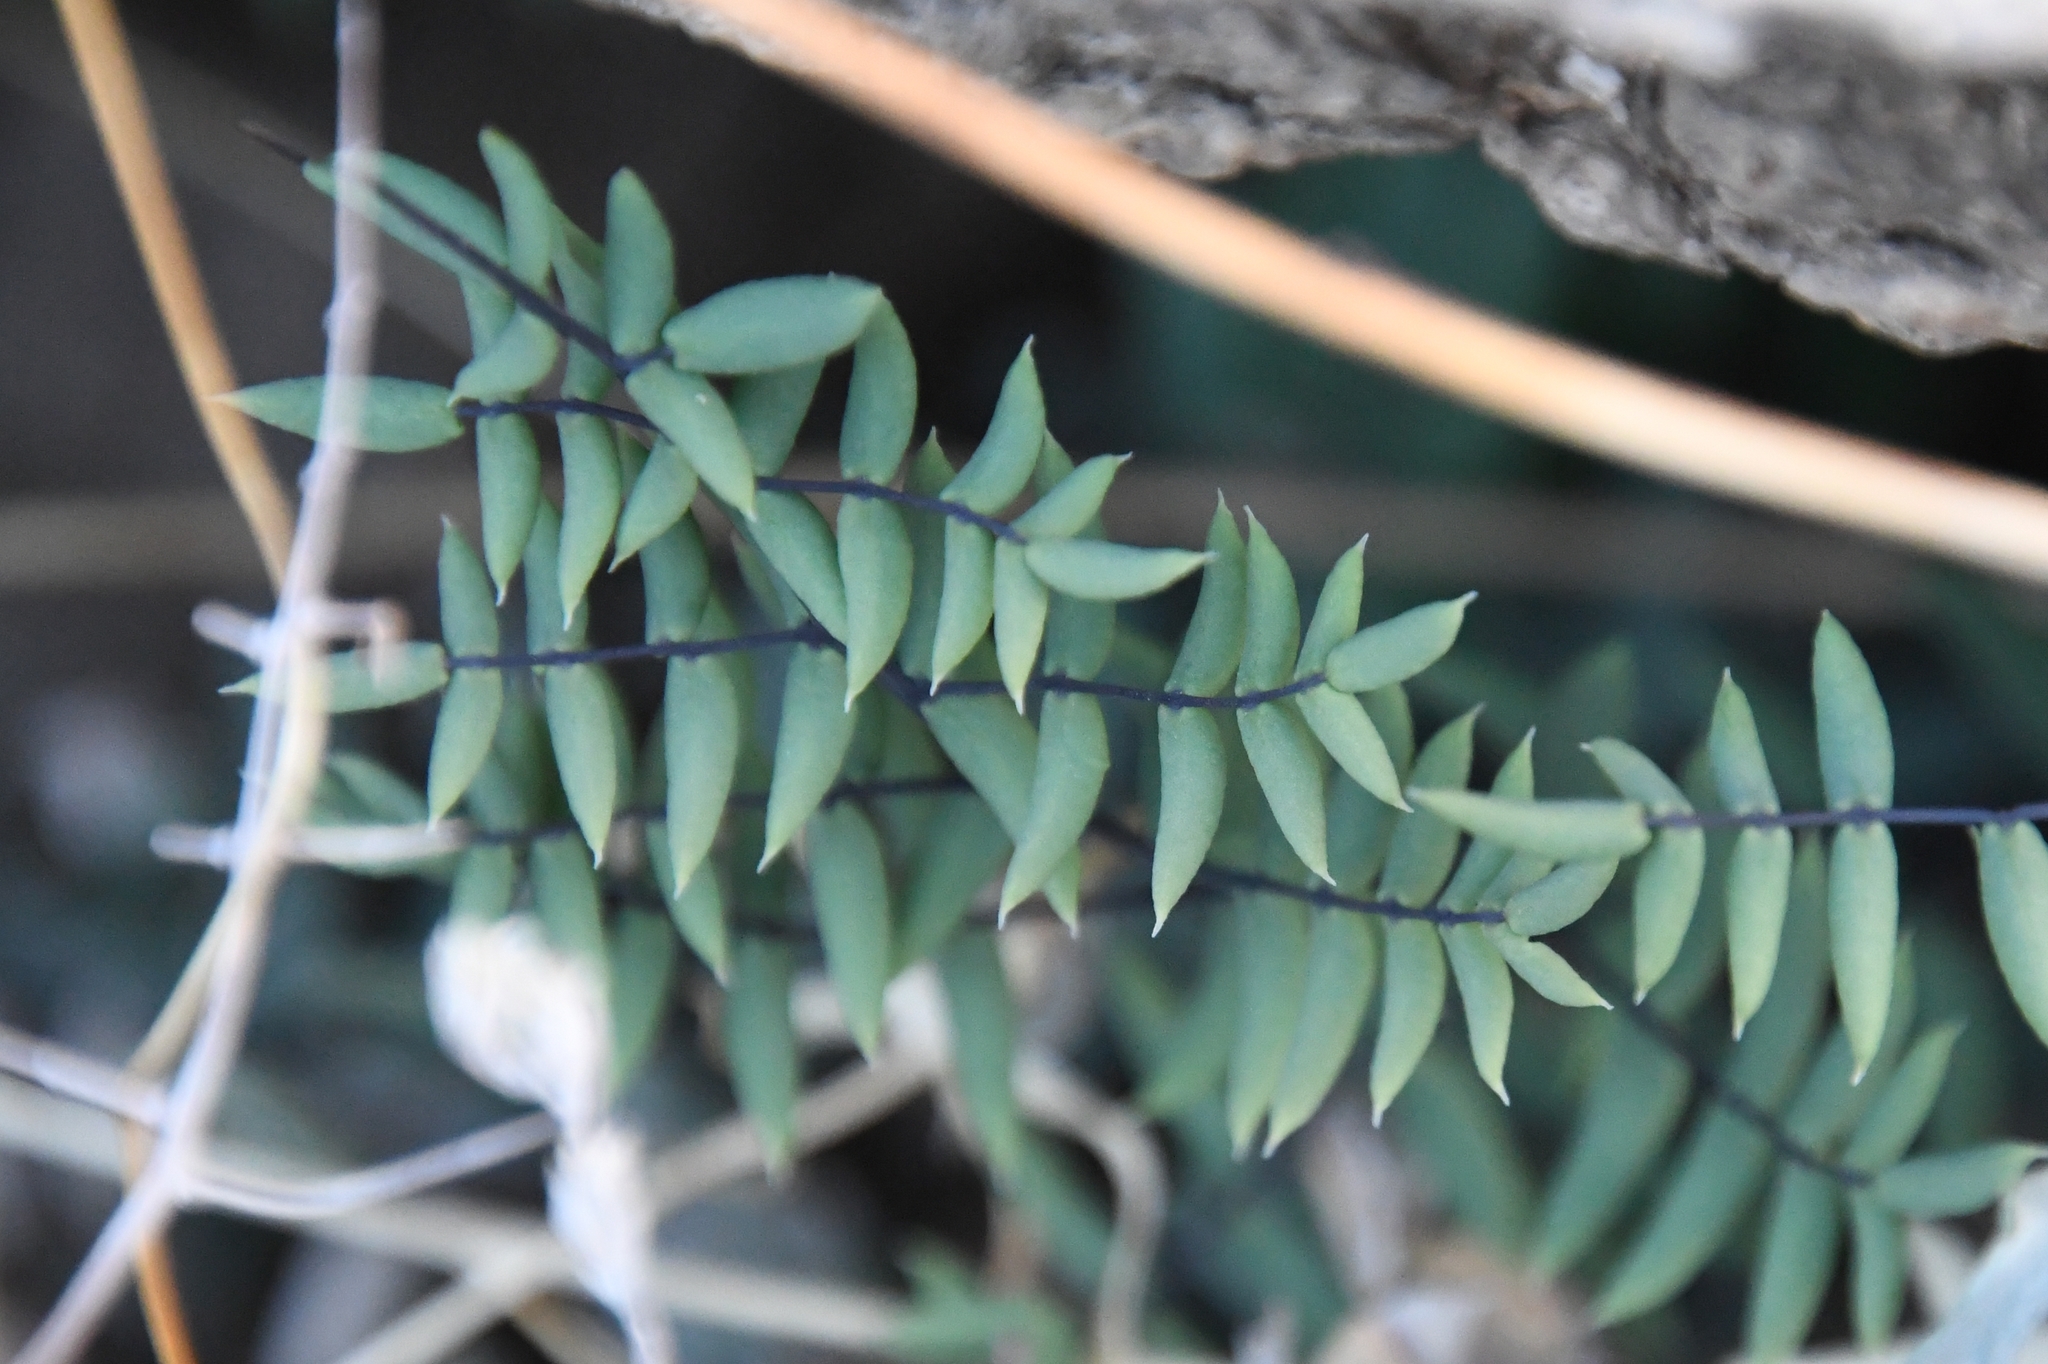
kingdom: Plantae
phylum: Tracheophyta
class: Polypodiopsida
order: Polypodiales
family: Pteridaceae
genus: Pellaea
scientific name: Pellaea truncata
